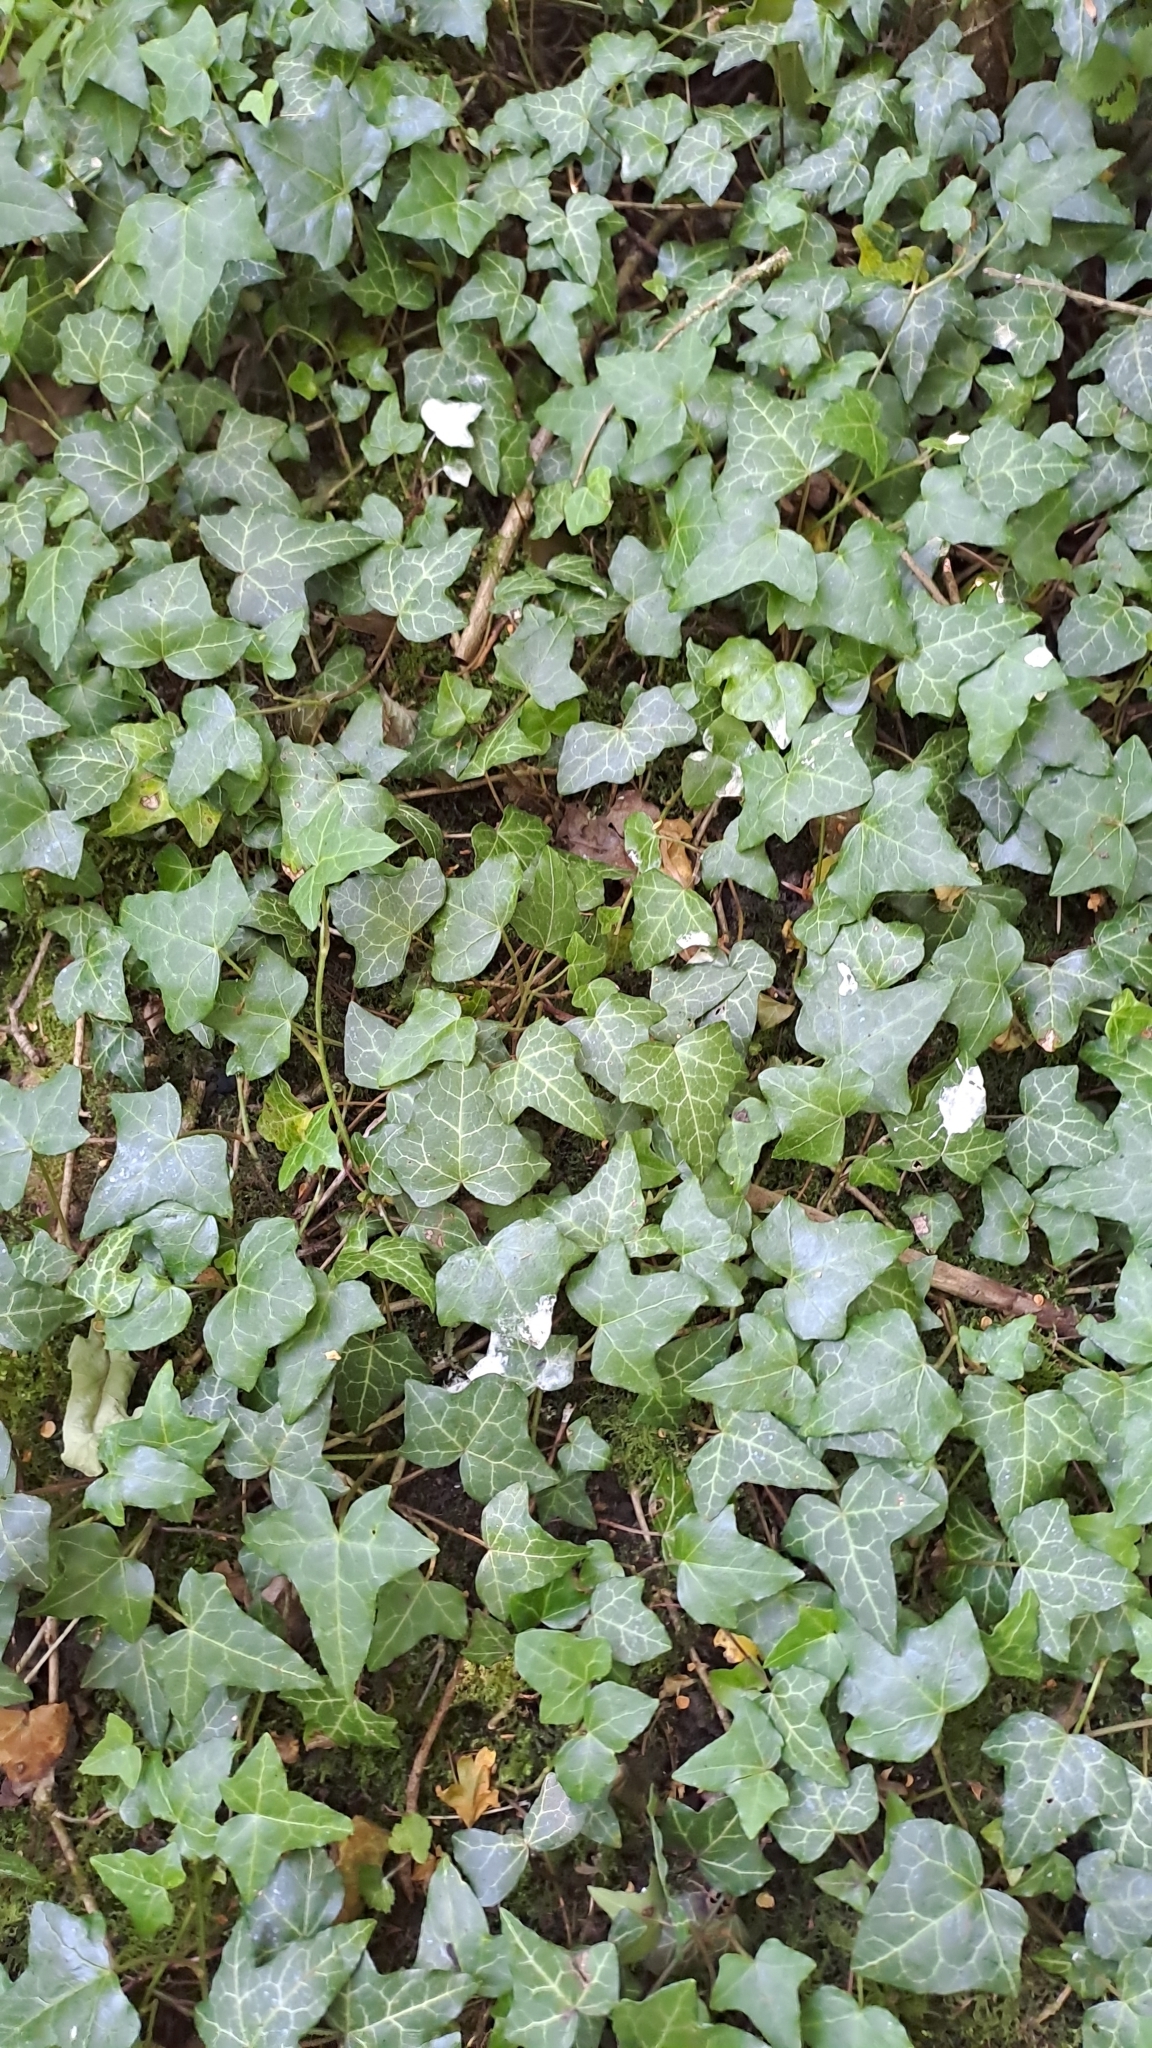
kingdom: Plantae
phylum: Tracheophyta
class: Magnoliopsida
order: Apiales
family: Araliaceae
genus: Hedera
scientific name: Hedera helix
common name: Ivy
